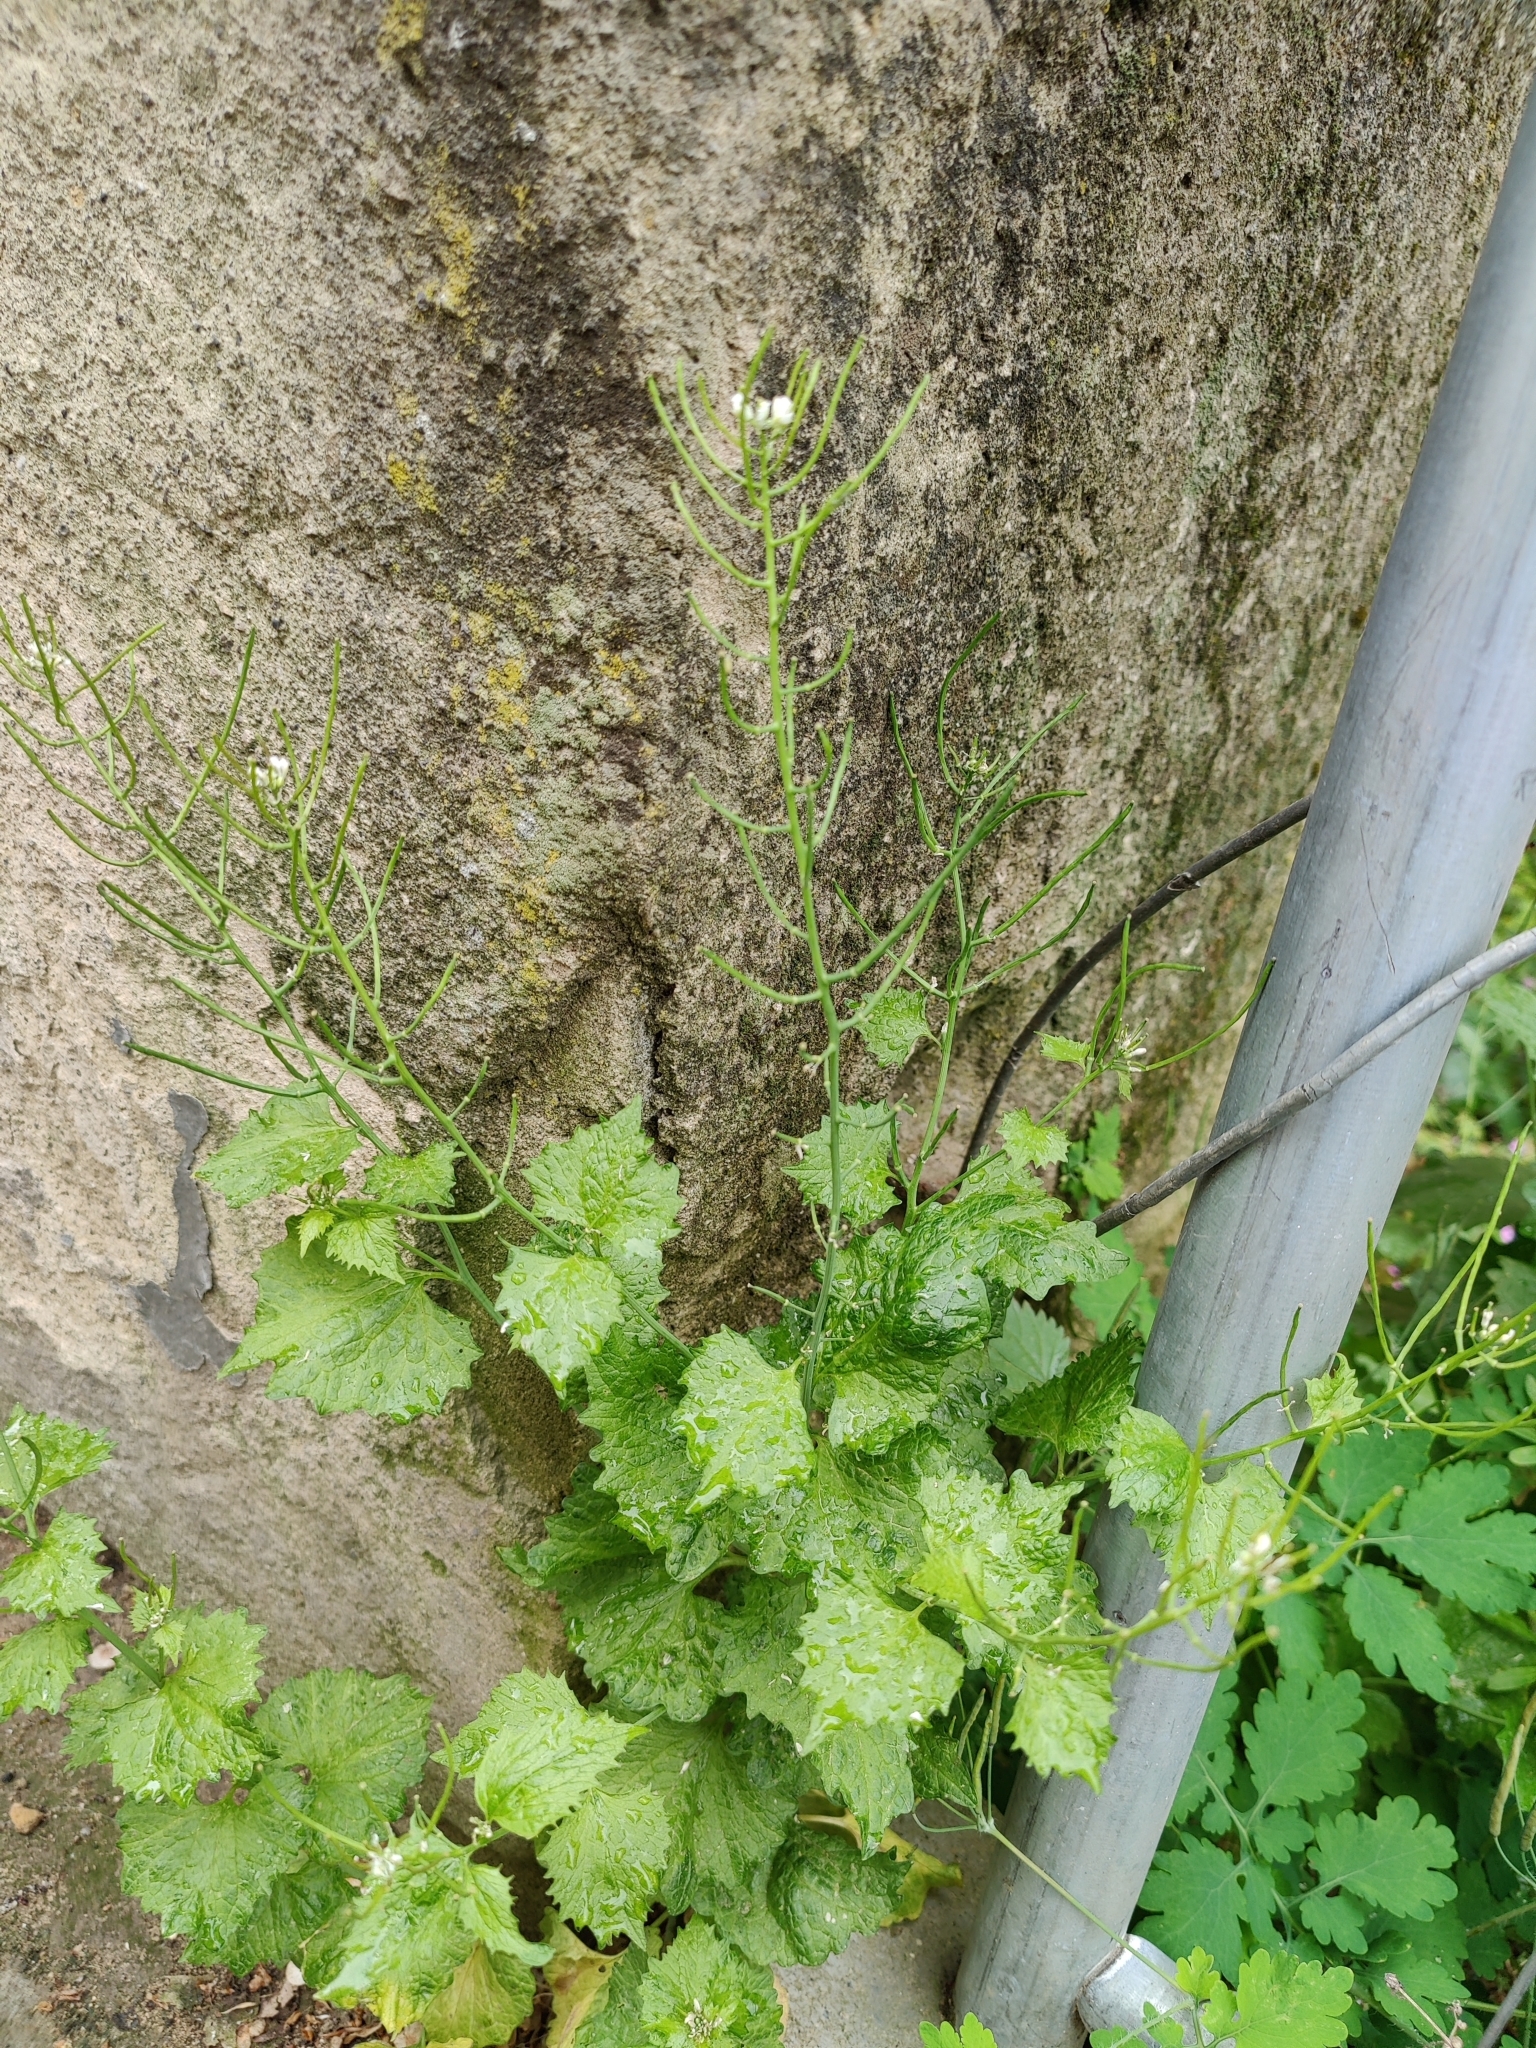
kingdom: Plantae
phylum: Tracheophyta
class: Magnoliopsida
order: Brassicales
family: Brassicaceae
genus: Alliaria
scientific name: Alliaria petiolata
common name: Garlic mustard
